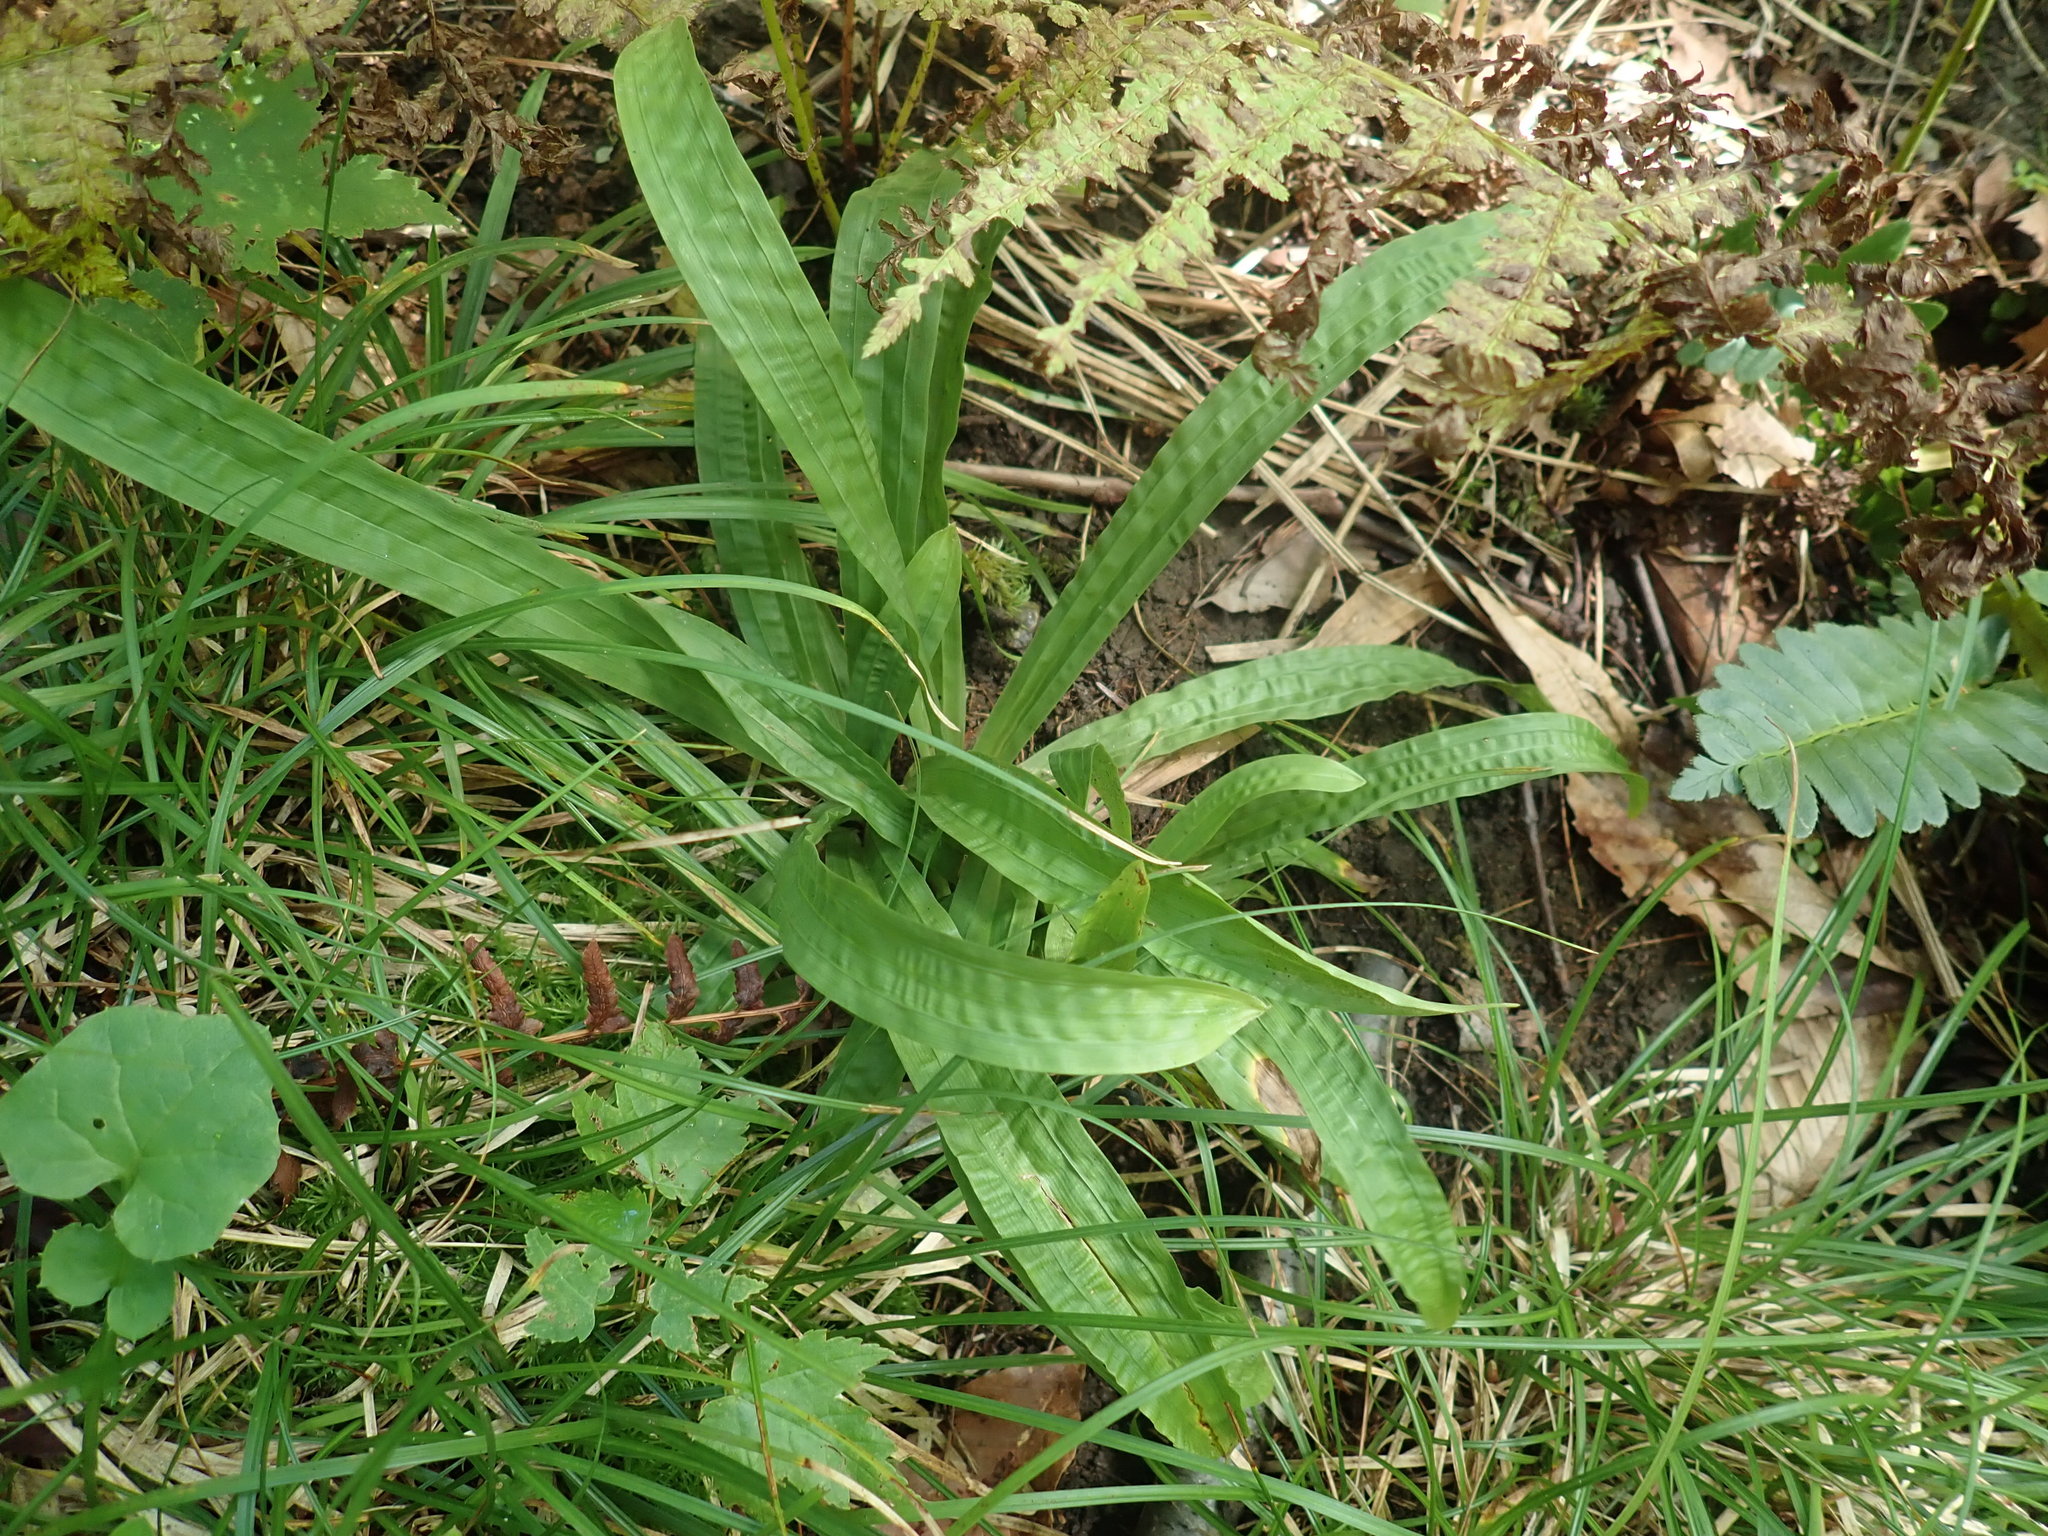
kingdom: Plantae
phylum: Tracheophyta
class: Liliopsida
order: Poales
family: Cyperaceae
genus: Carex
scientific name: Carex plantaginea
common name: Plantain-leaved sedge
